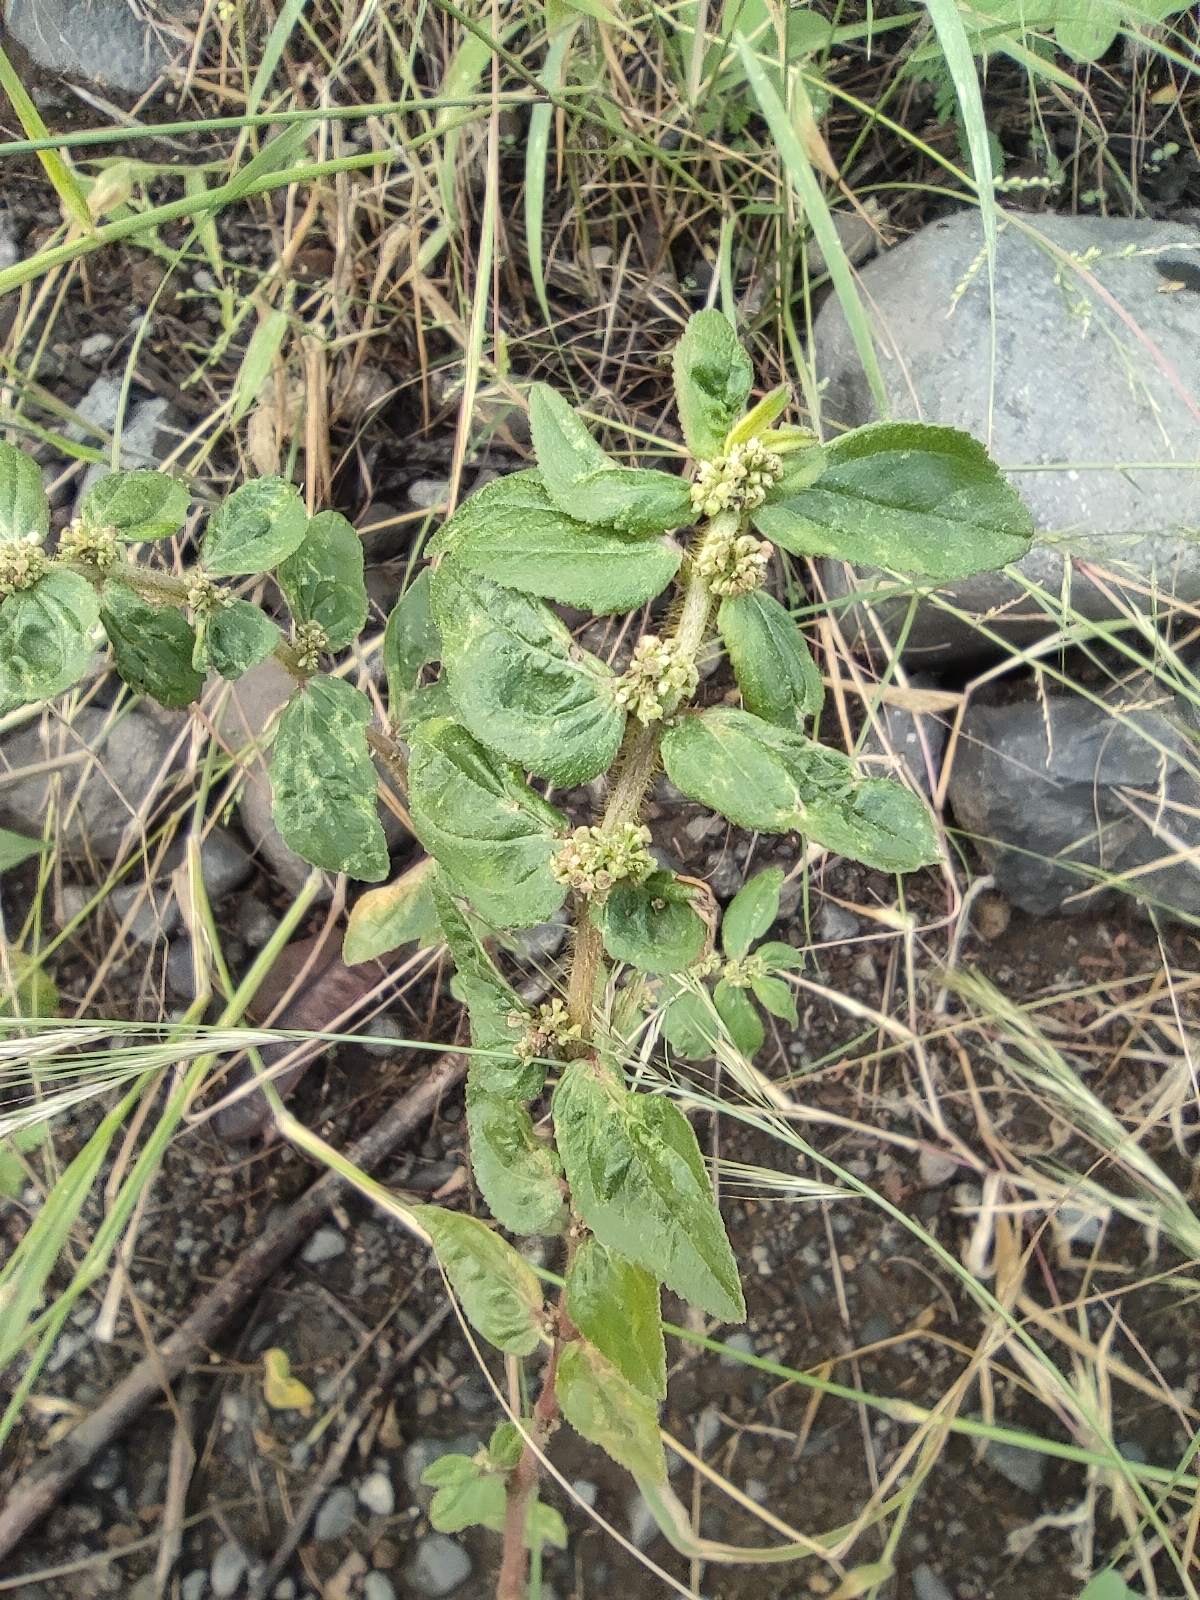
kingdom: Plantae
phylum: Tracheophyta
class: Magnoliopsida
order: Malpighiales
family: Euphorbiaceae
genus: Euphorbia
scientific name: Euphorbia hirta
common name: Pillpod sandmat
